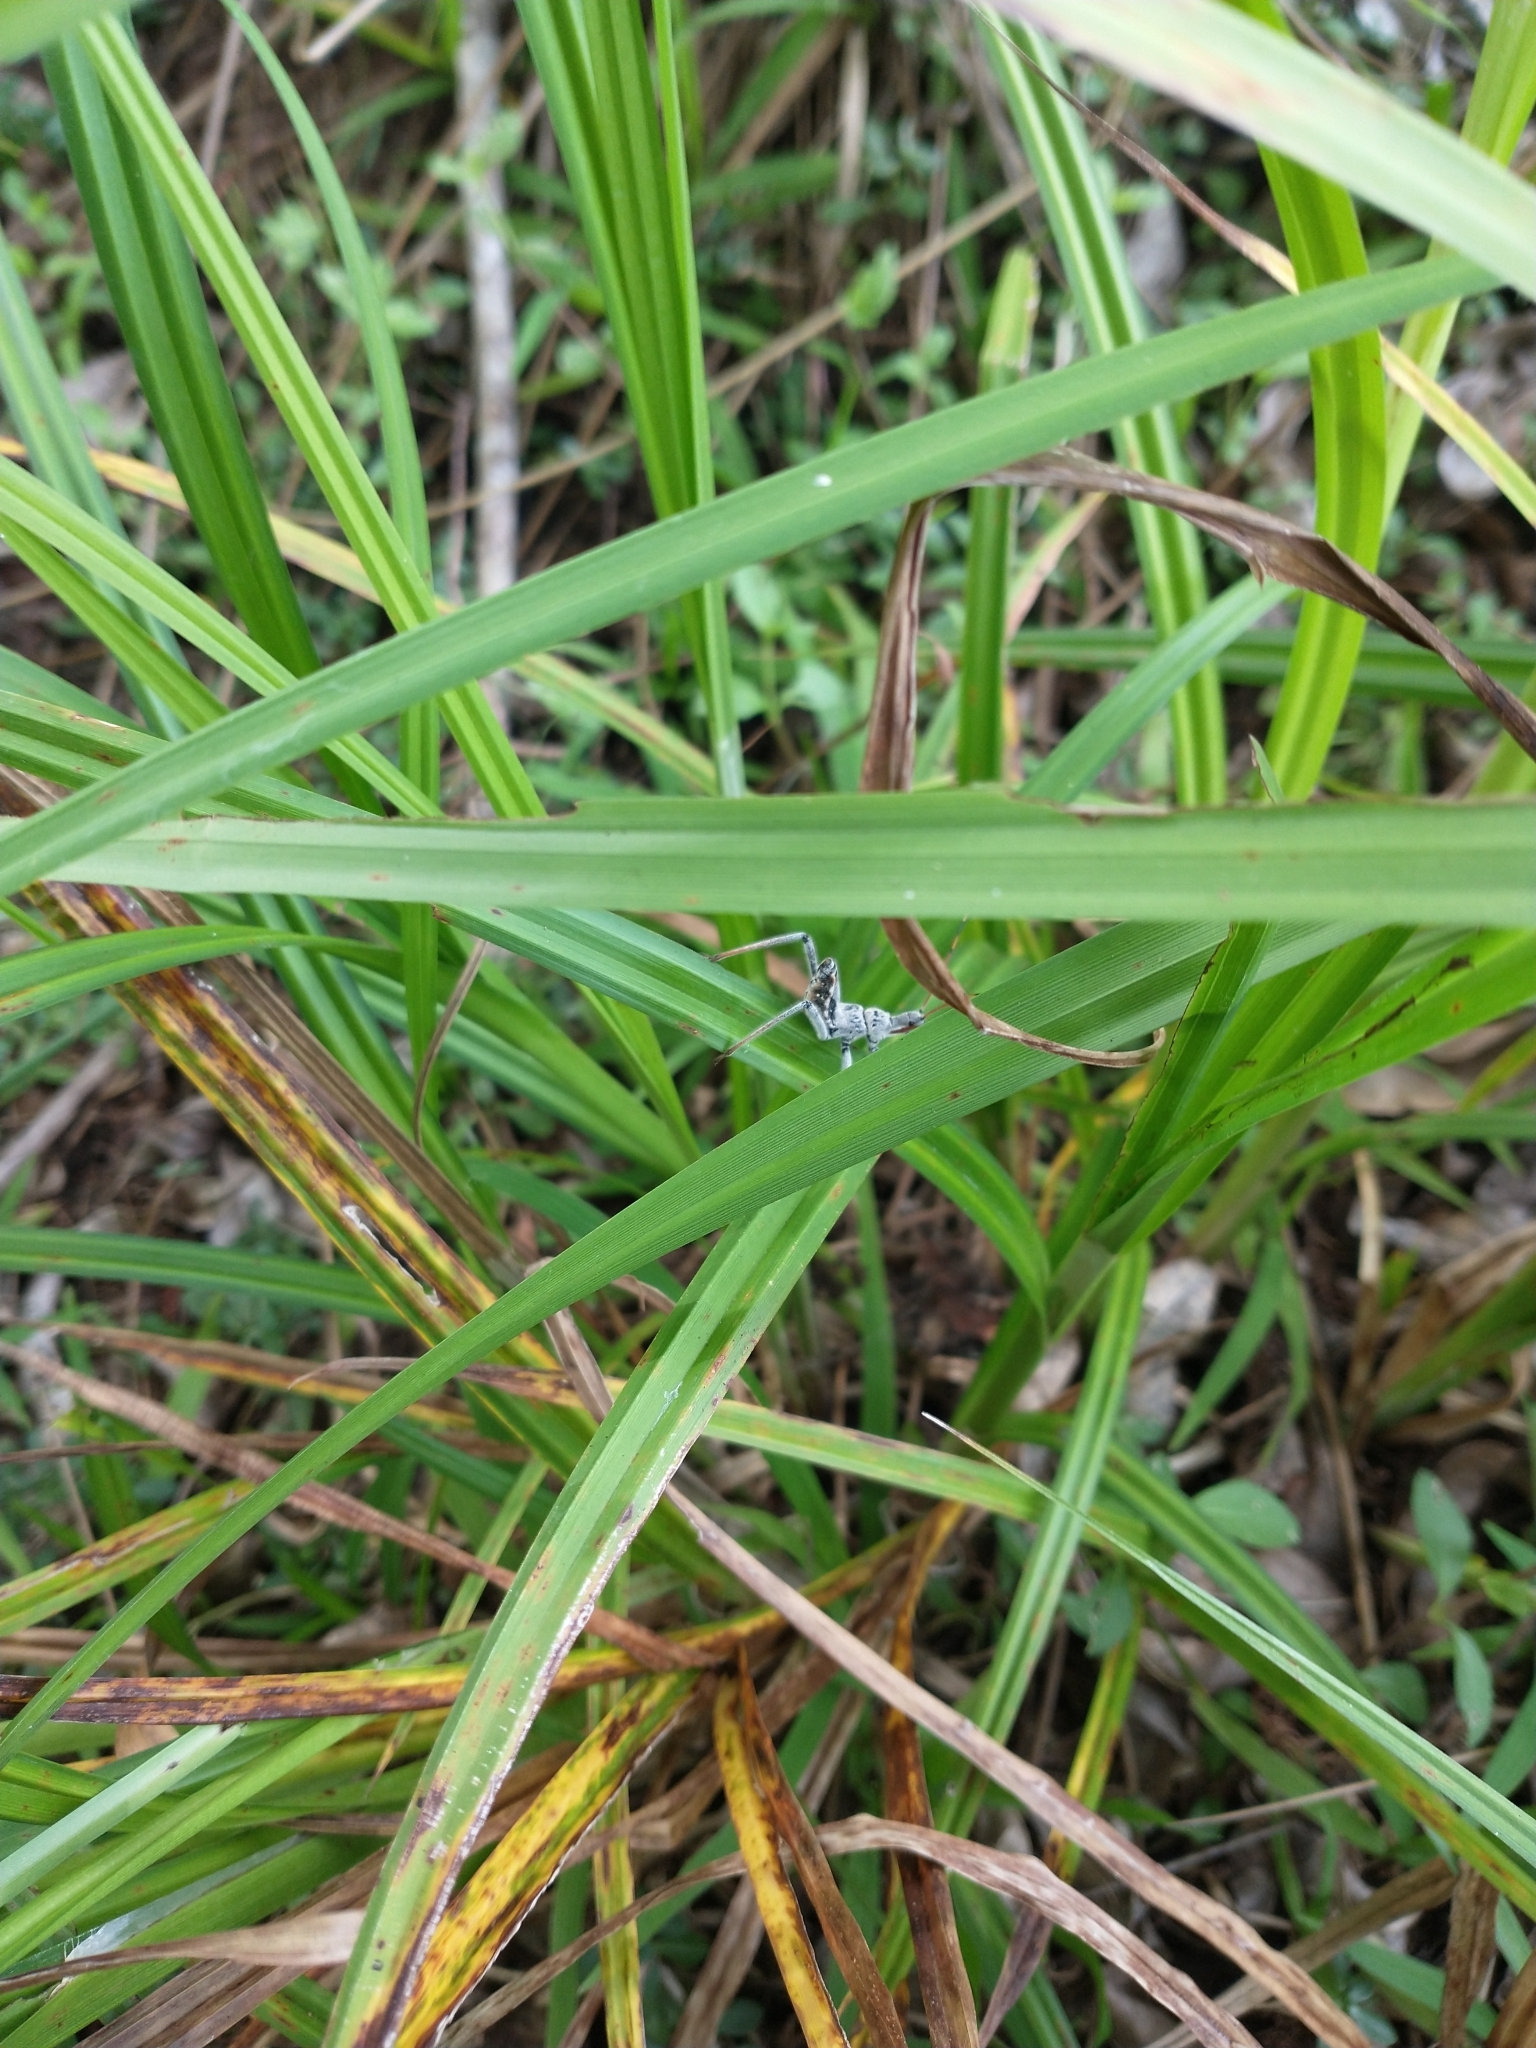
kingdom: Animalia
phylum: Arthropoda
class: Insecta
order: Hemiptera
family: Reduviidae
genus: Arilus
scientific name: Arilus cristatus
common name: North american wheel bug
